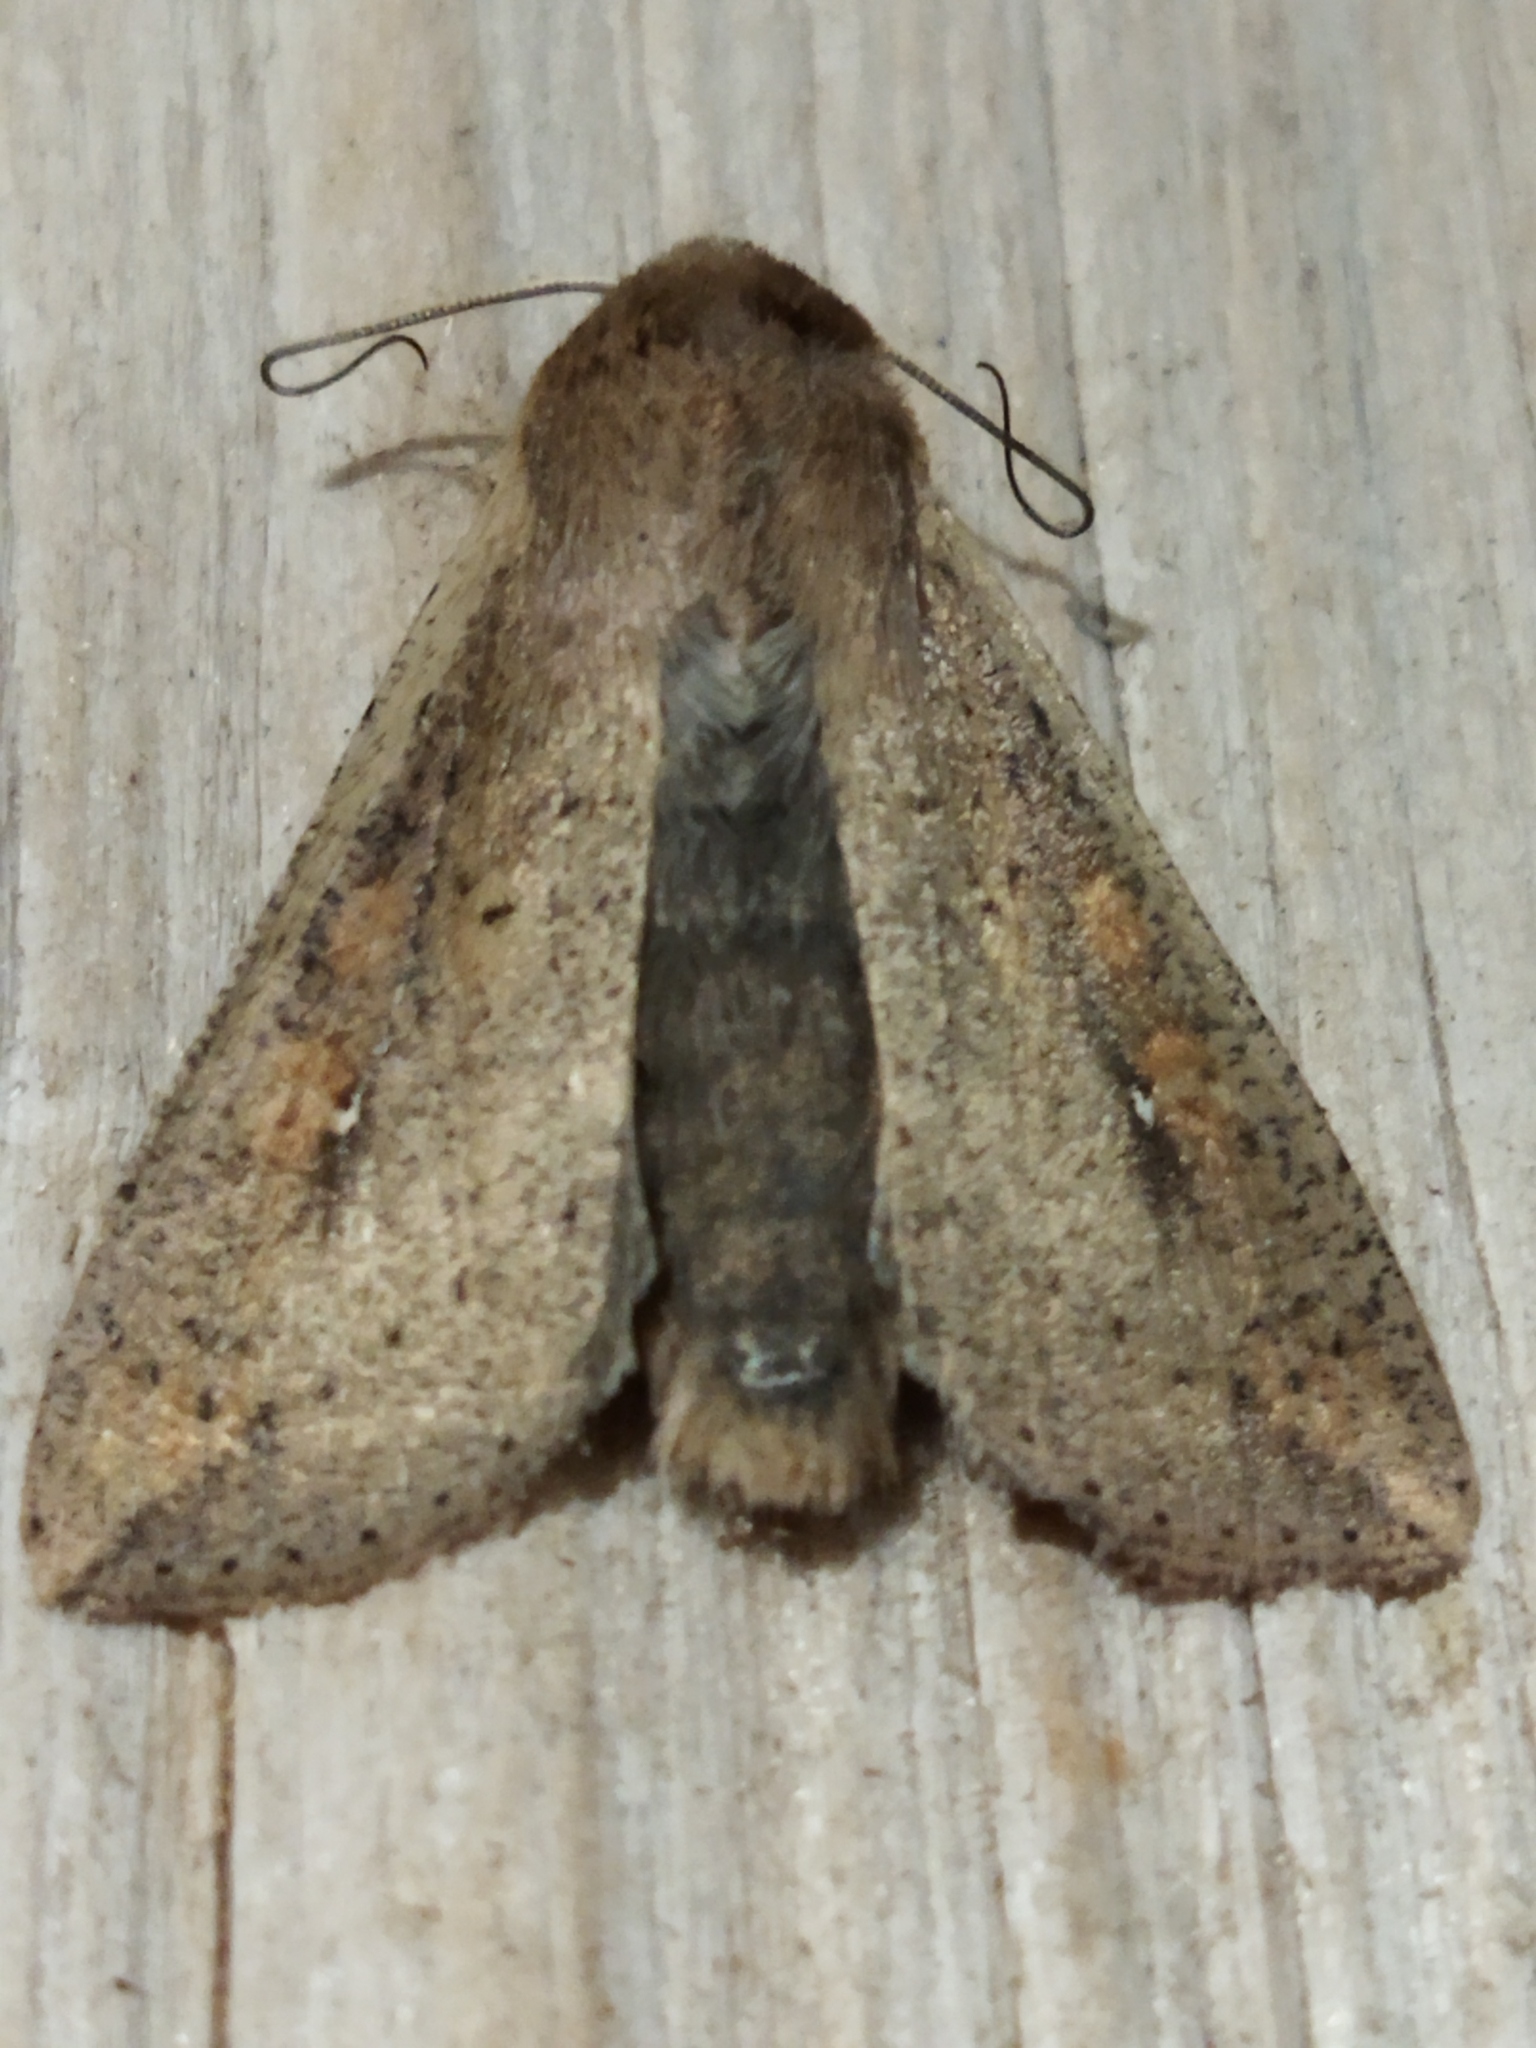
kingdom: Animalia
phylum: Arthropoda
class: Insecta
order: Lepidoptera
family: Noctuidae
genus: Mythimna
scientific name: Mythimna unipuncta
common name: White-speck
